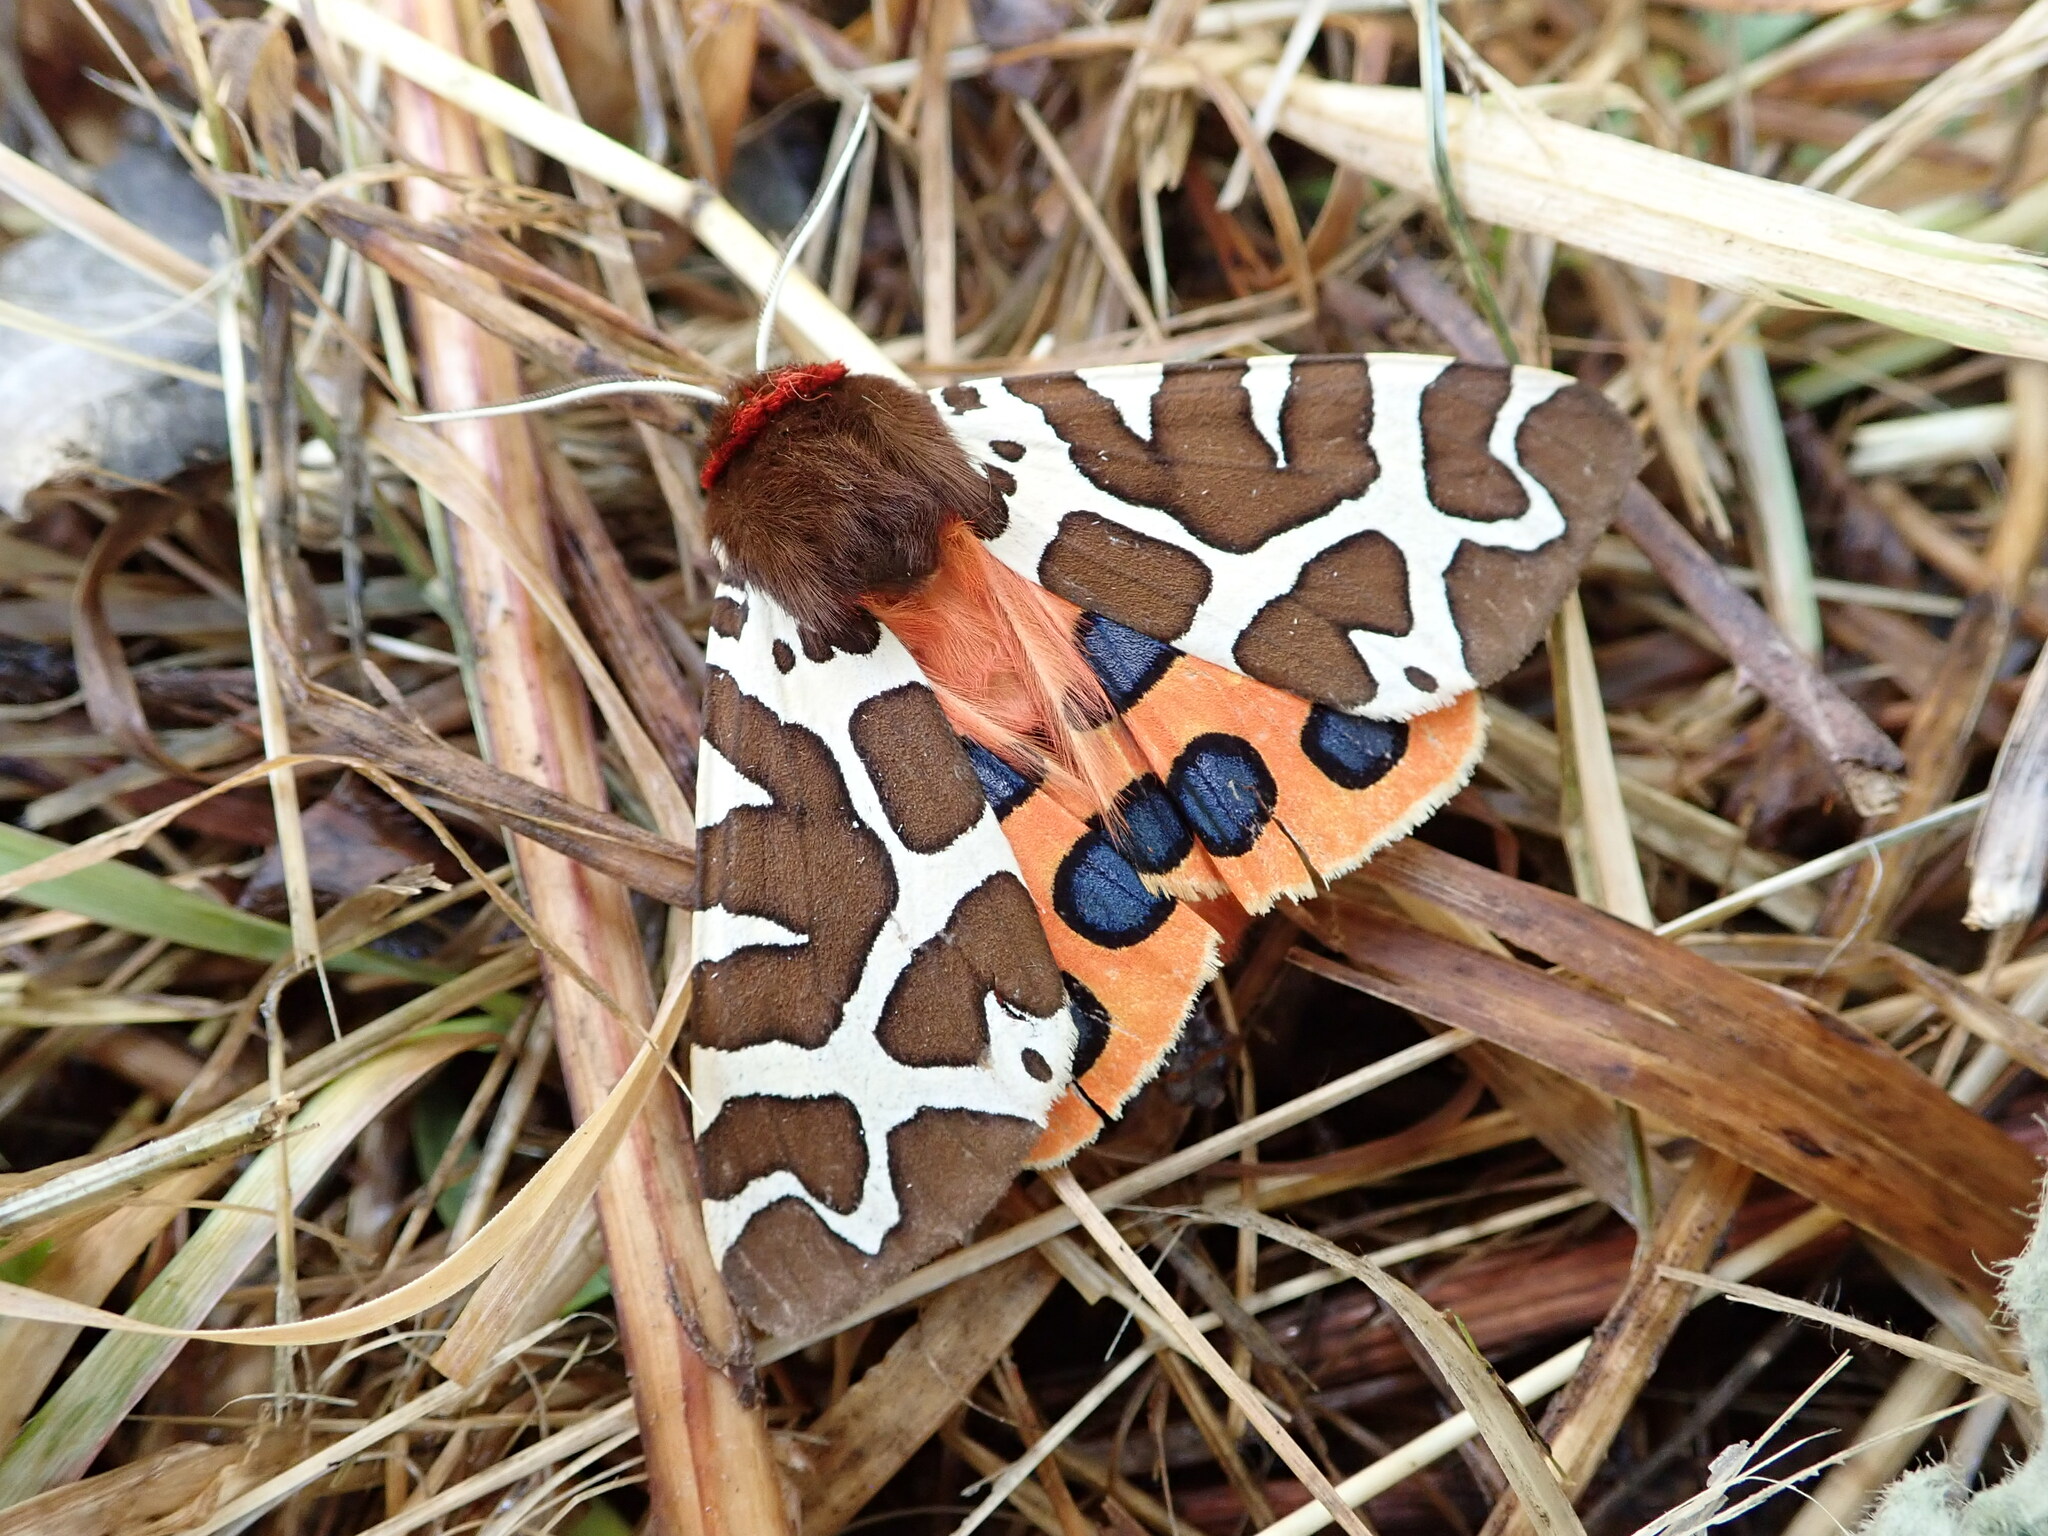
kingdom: Animalia
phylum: Arthropoda
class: Insecta
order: Lepidoptera
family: Erebidae
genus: Arctia
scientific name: Arctia caja
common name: Garden tiger
